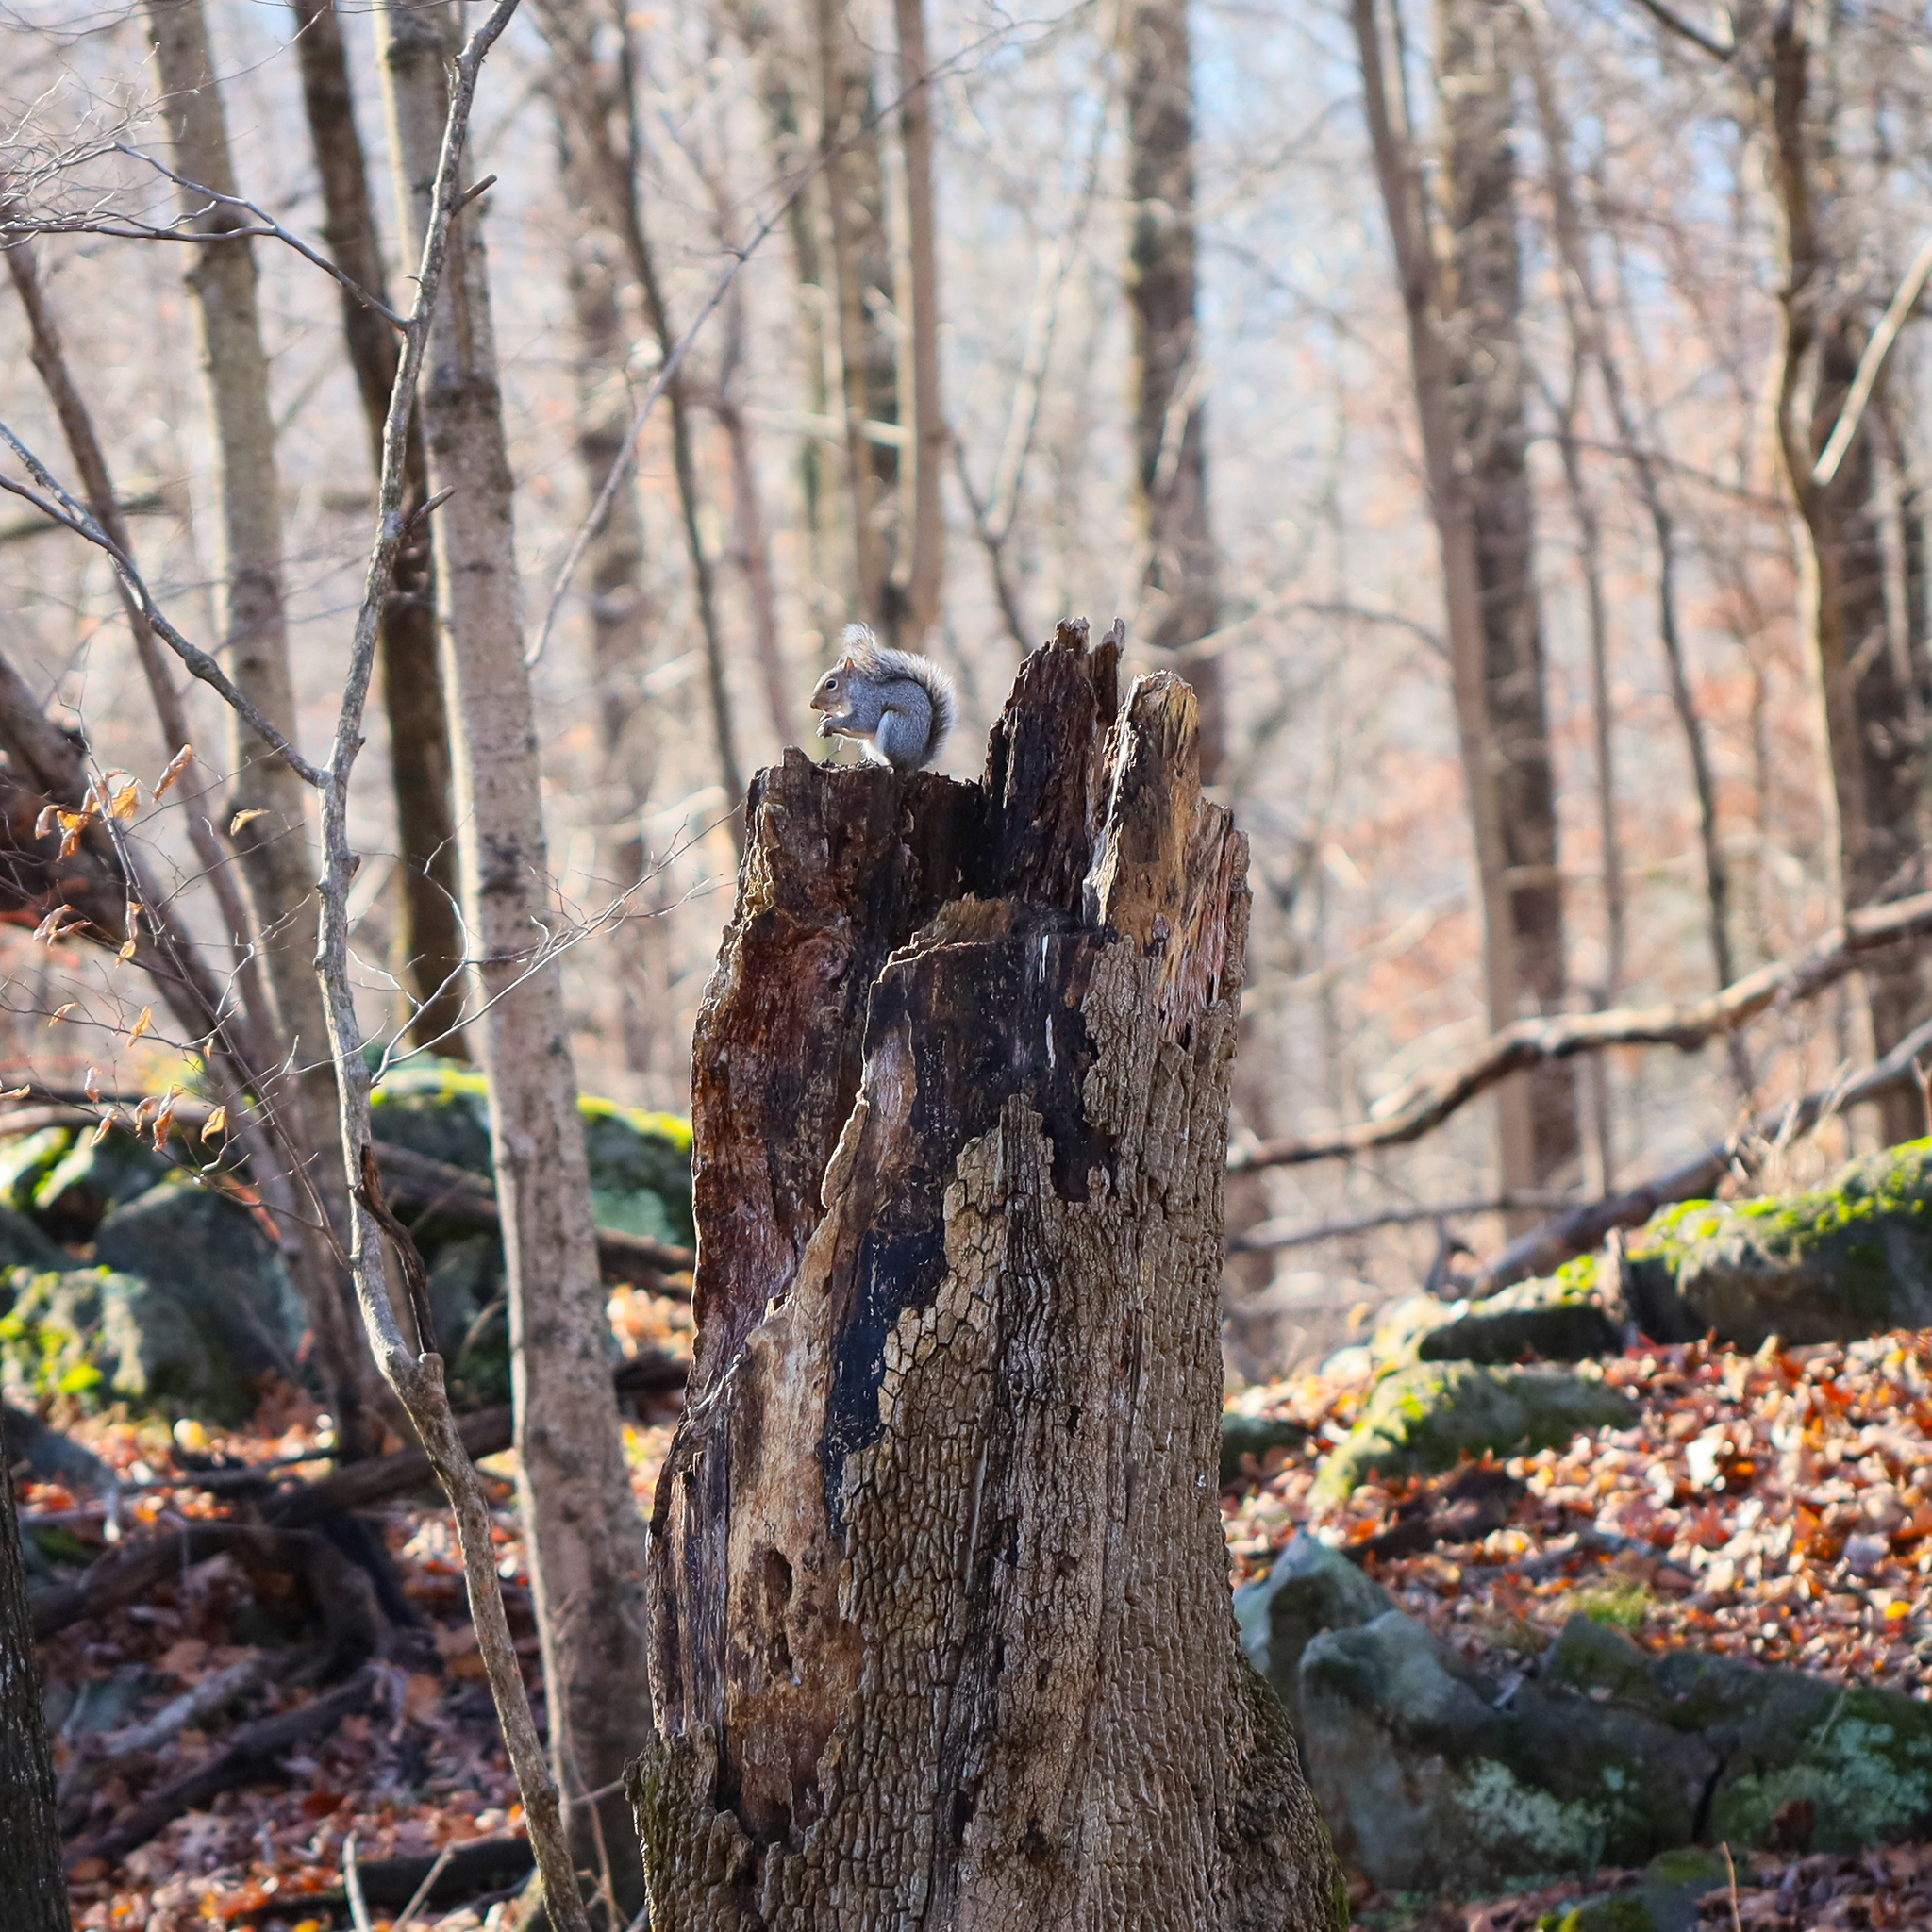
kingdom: Animalia
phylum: Chordata
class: Mammalia
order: Rodentia
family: Sciuridae
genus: Sciurus
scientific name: Sciurus carolinensis
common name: Eastern gray squirrel
